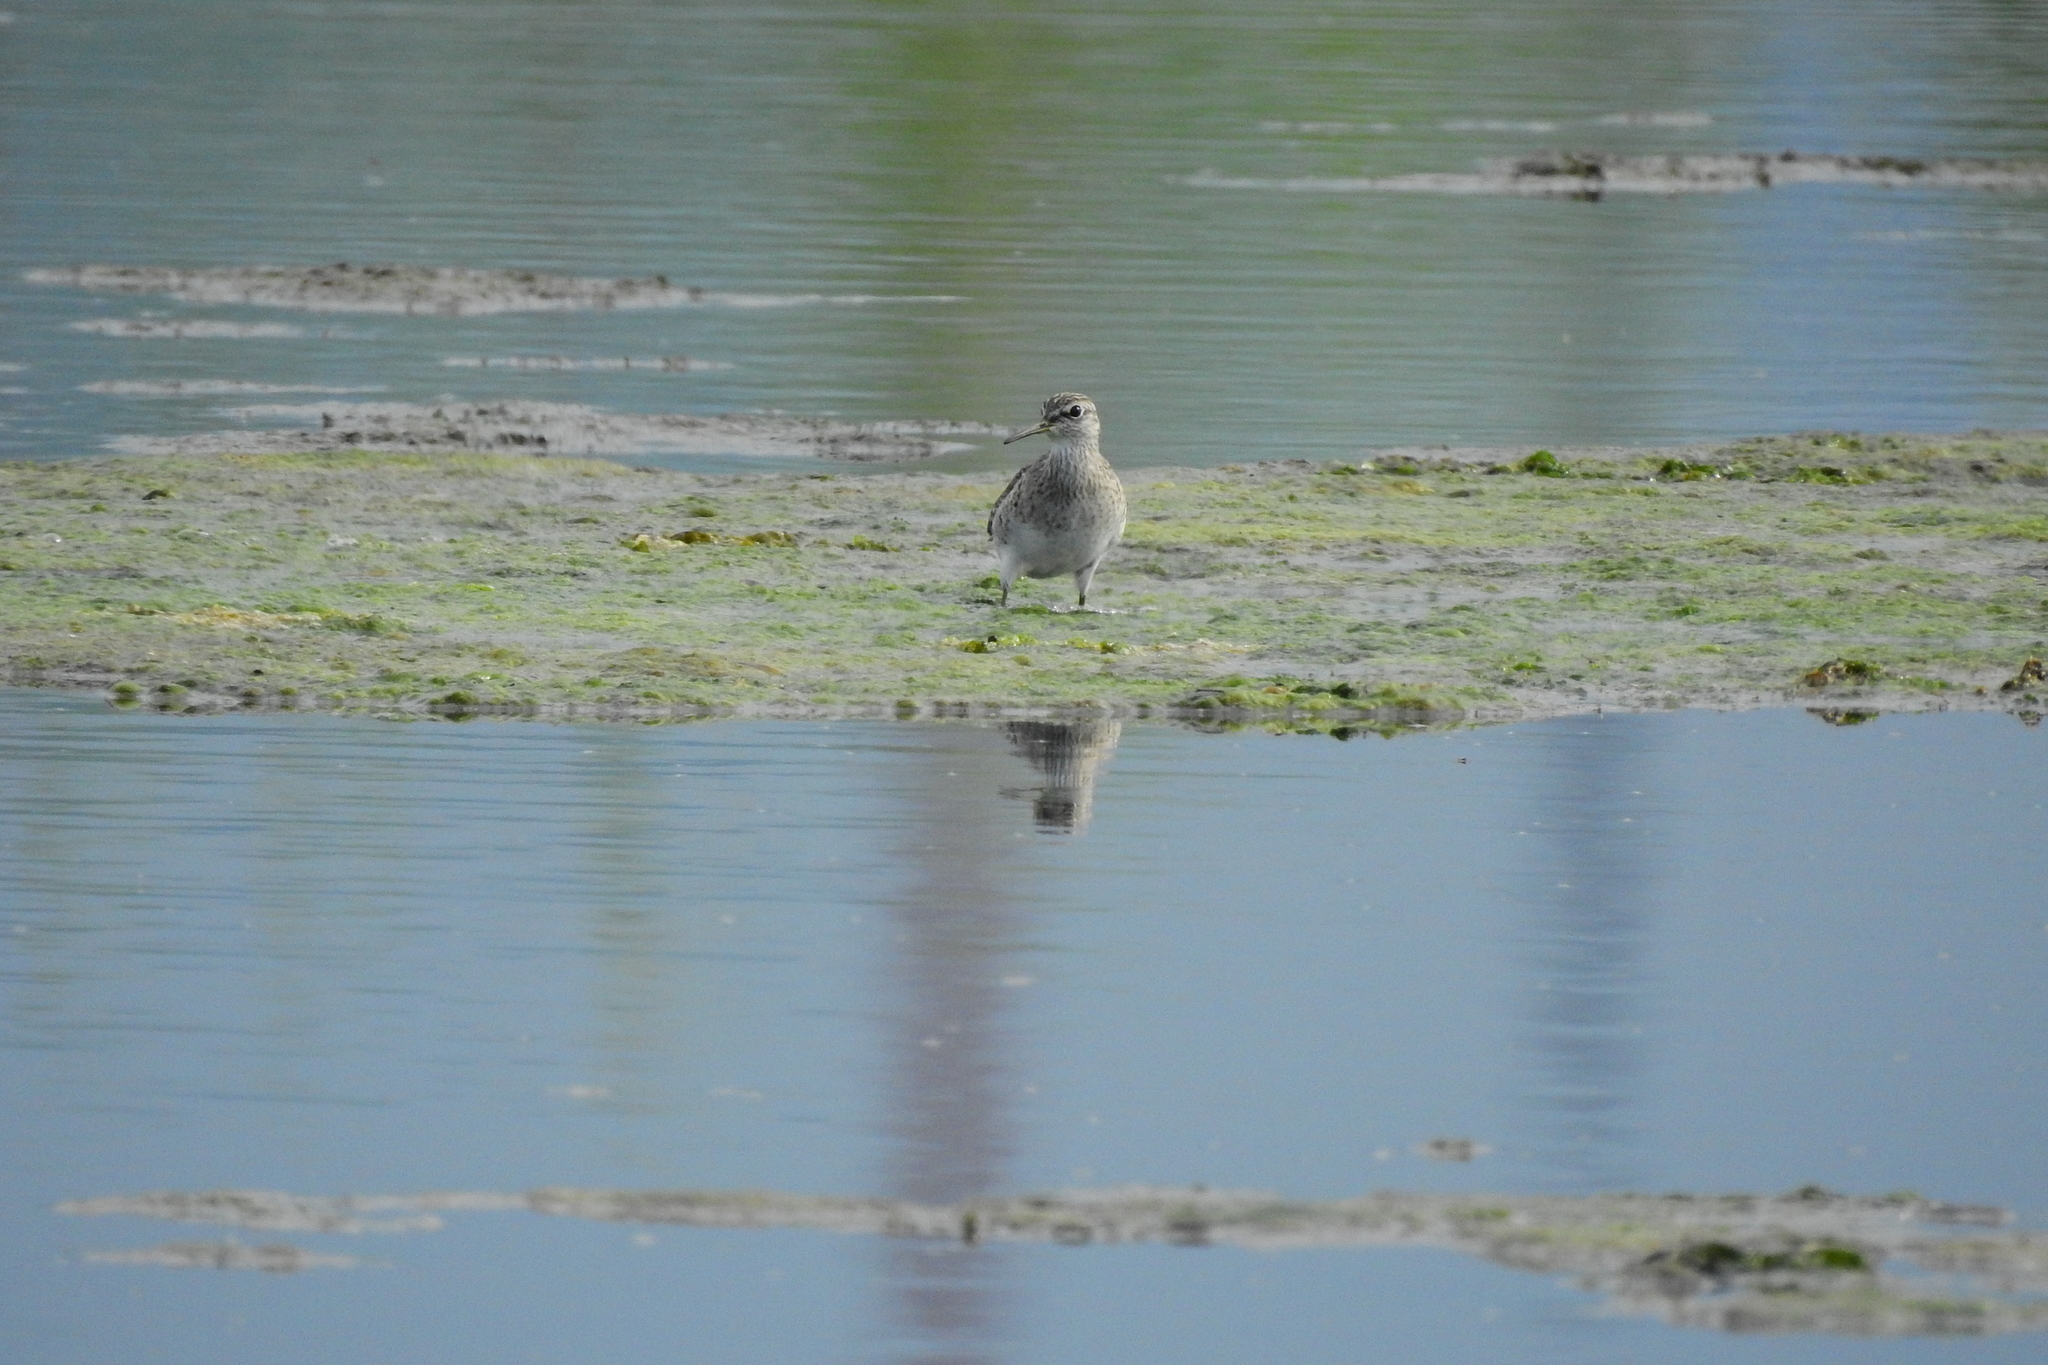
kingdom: Animalia
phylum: Chordata
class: Aves
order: Charadriiformes
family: Scolopacidae
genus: Tringa
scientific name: Tringa glareola
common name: Wood sandpiper
